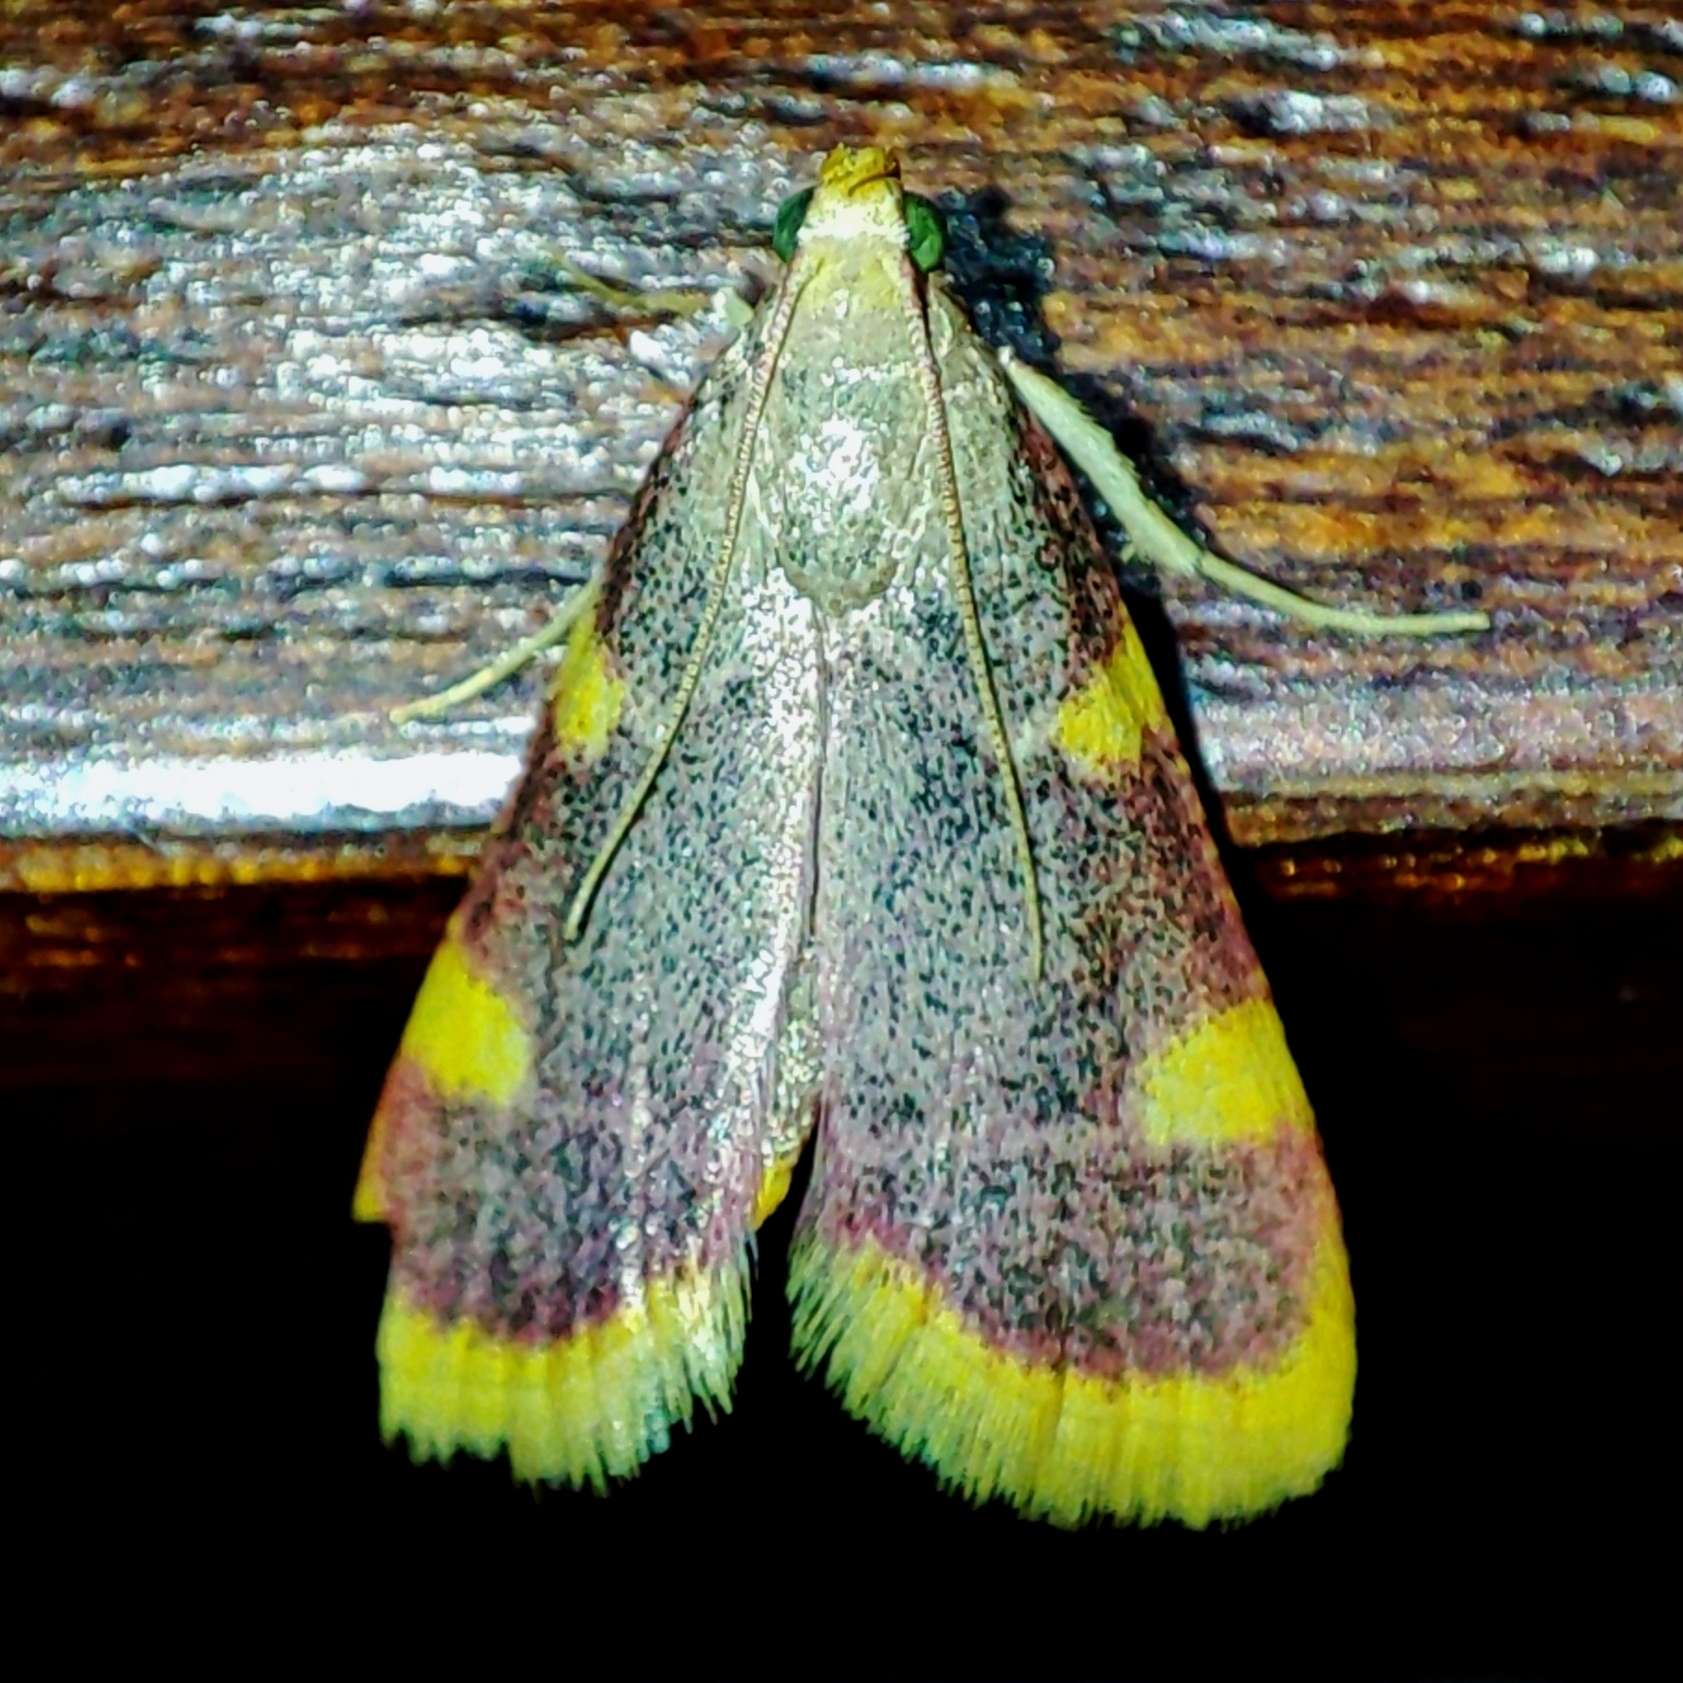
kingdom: Animalia
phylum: Arthropoda
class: Insecta
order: Lepidoptera
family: Pyralidae
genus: Hypsopygia
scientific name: Hypsopygia costalis
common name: Gold triangle
